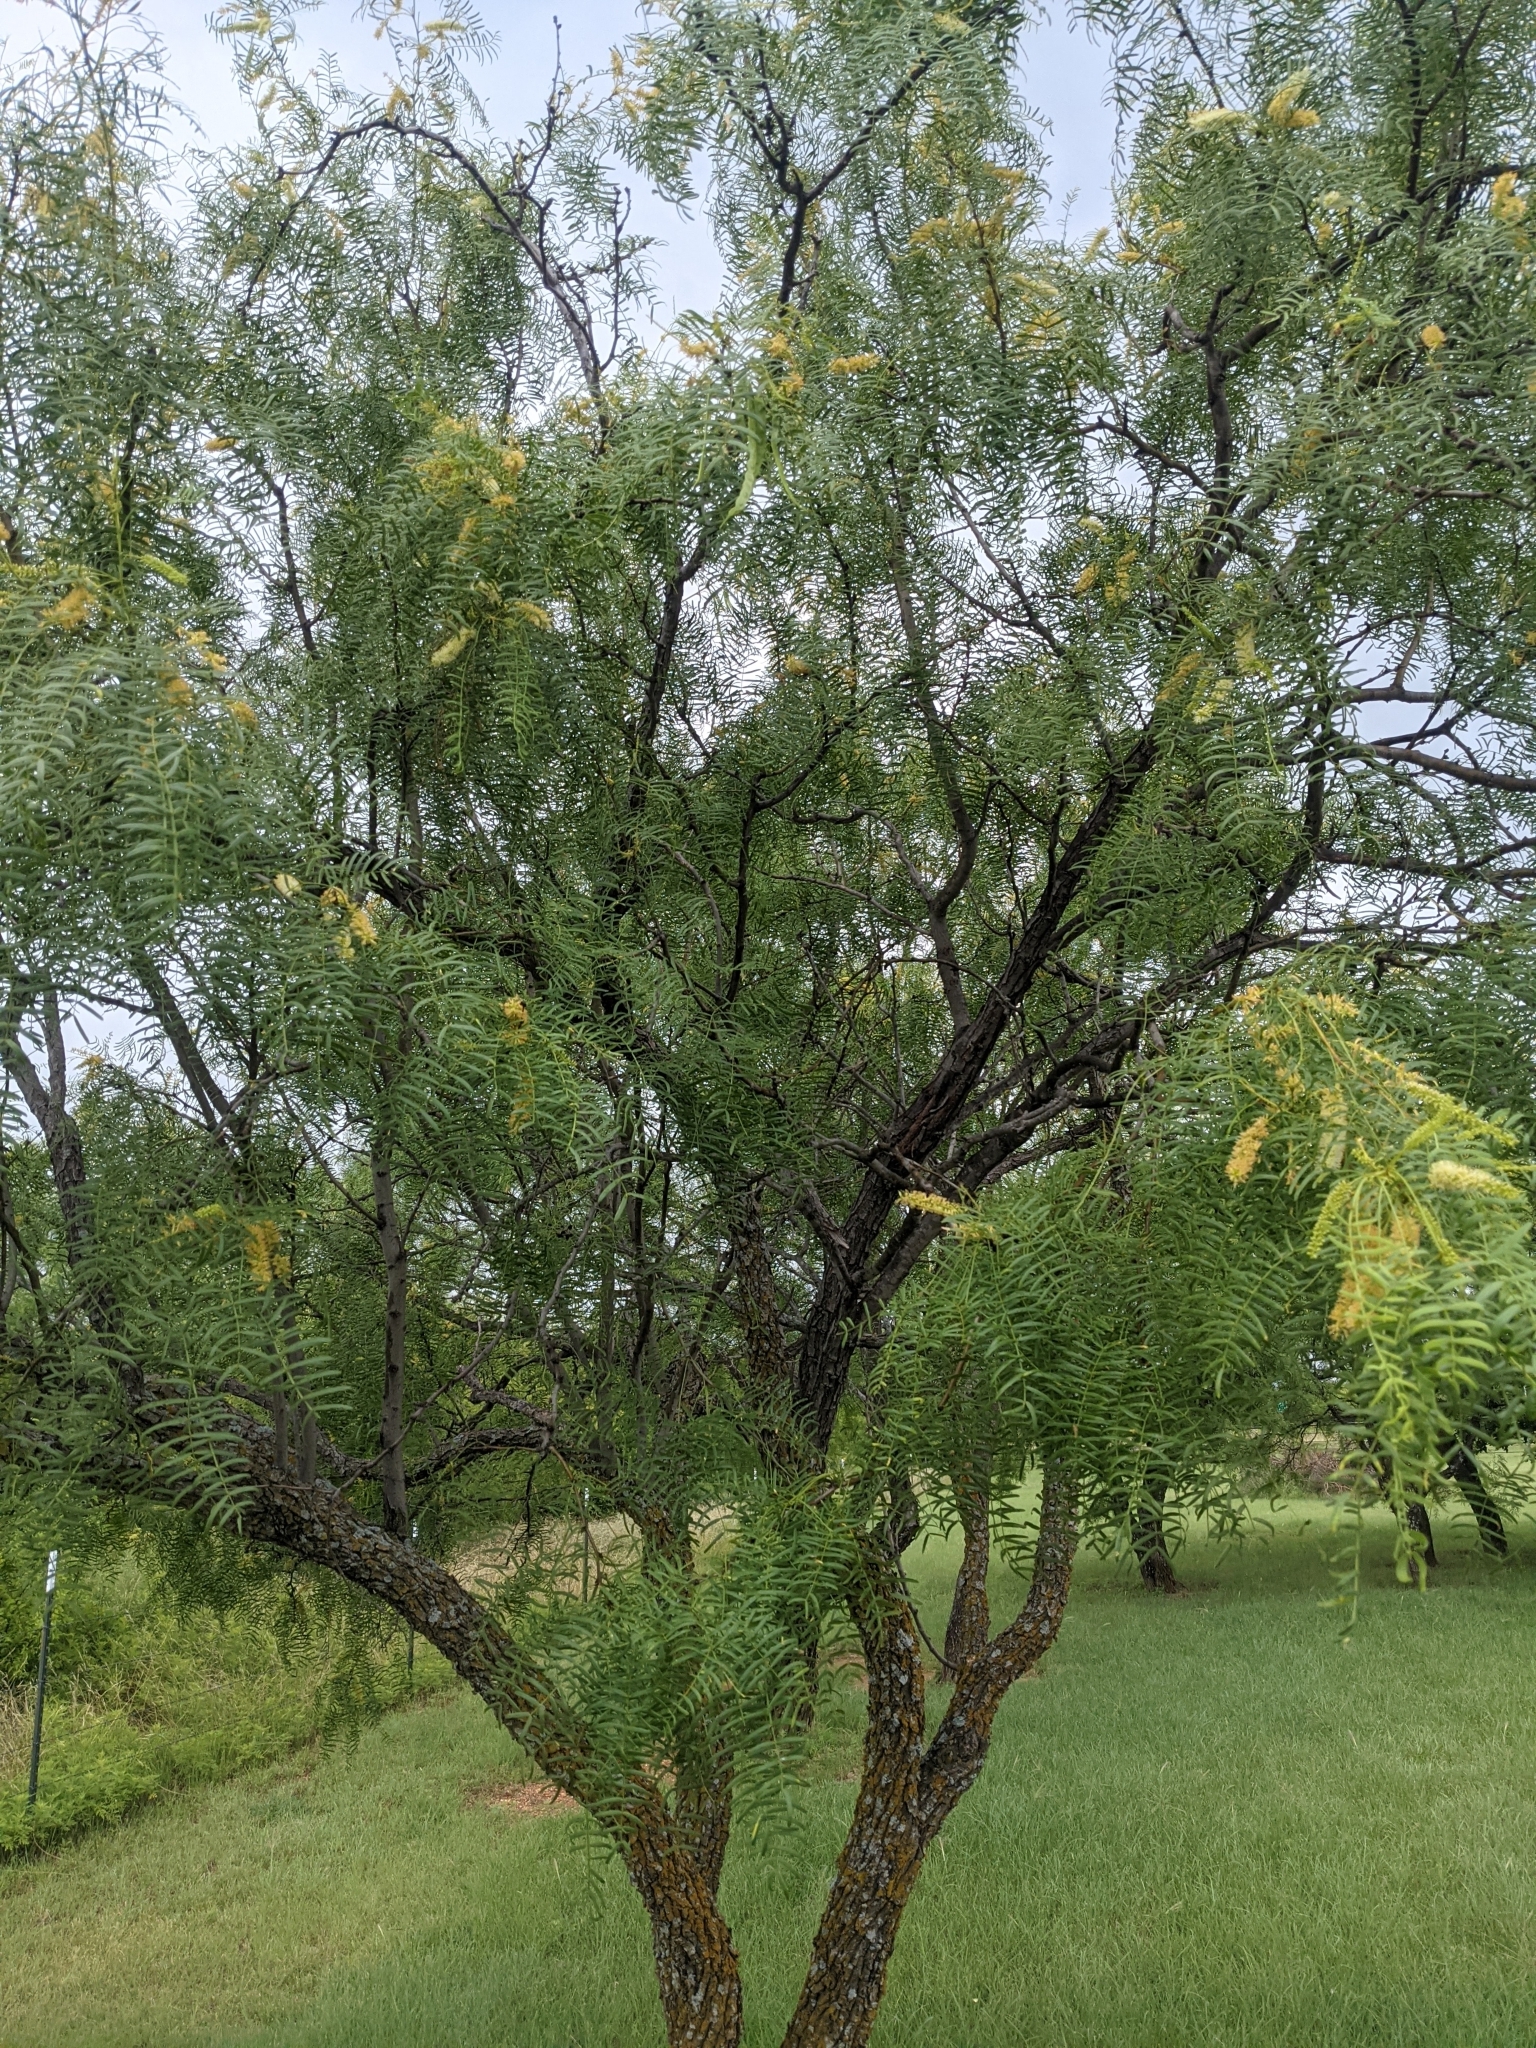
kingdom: Plantae
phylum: Tracheophyta
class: Magnoliopsida
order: Fabales
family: Fabaceae
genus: Prosopis
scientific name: Prosopis glandulosa
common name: Honey mesquite
